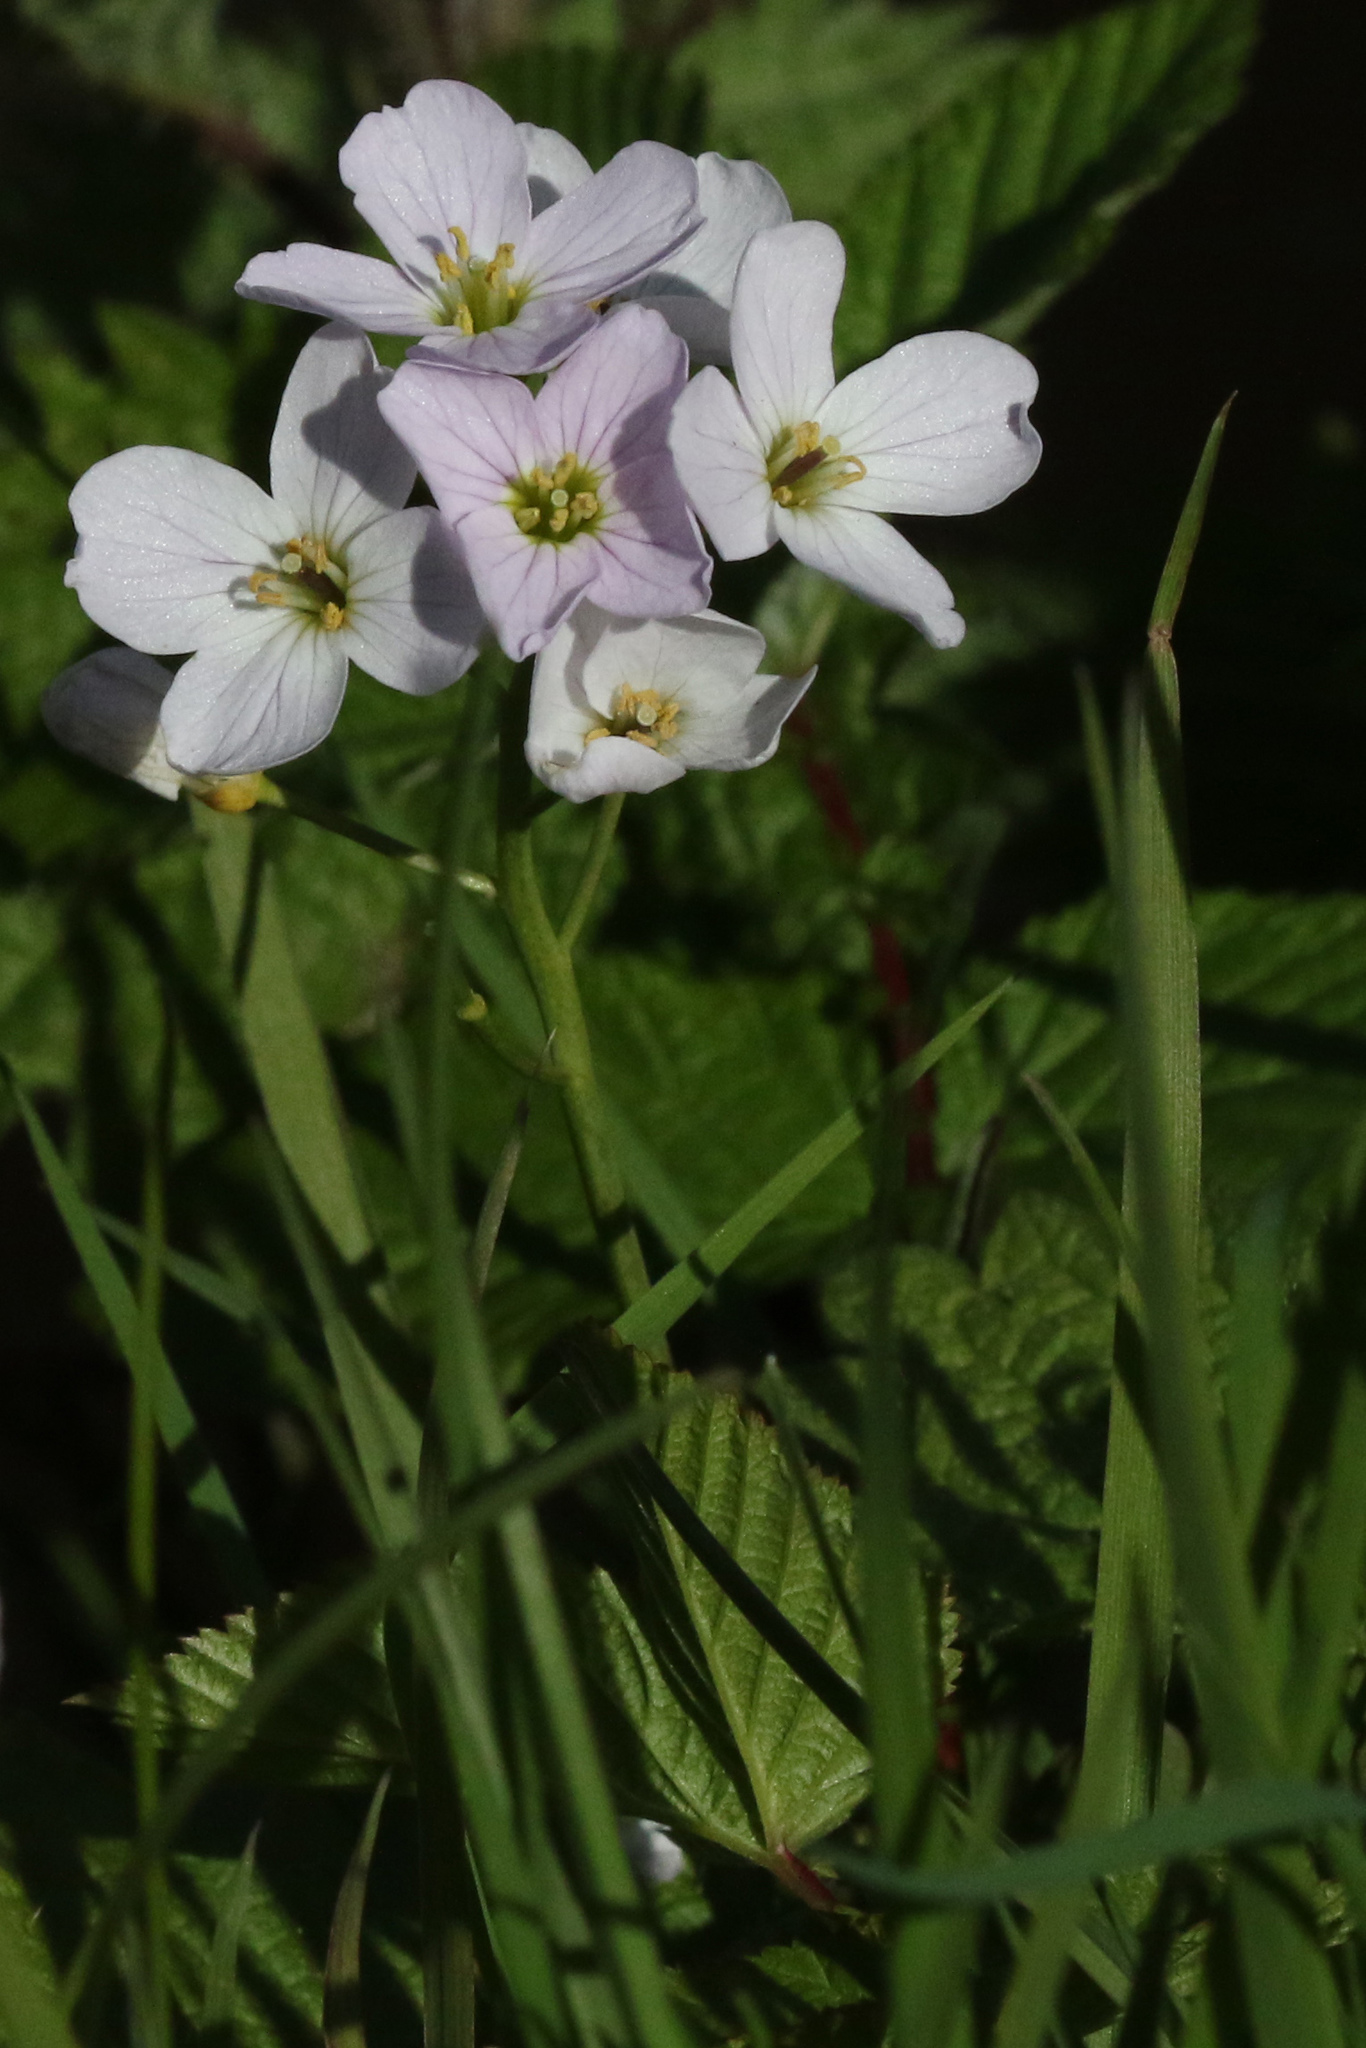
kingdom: Plantae
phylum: Tracheophyta
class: Magnoliopsida
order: Brassicales
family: Brassicaceae
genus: Cardamine
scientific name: Cardamine pratensis
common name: Cuckoo flower
